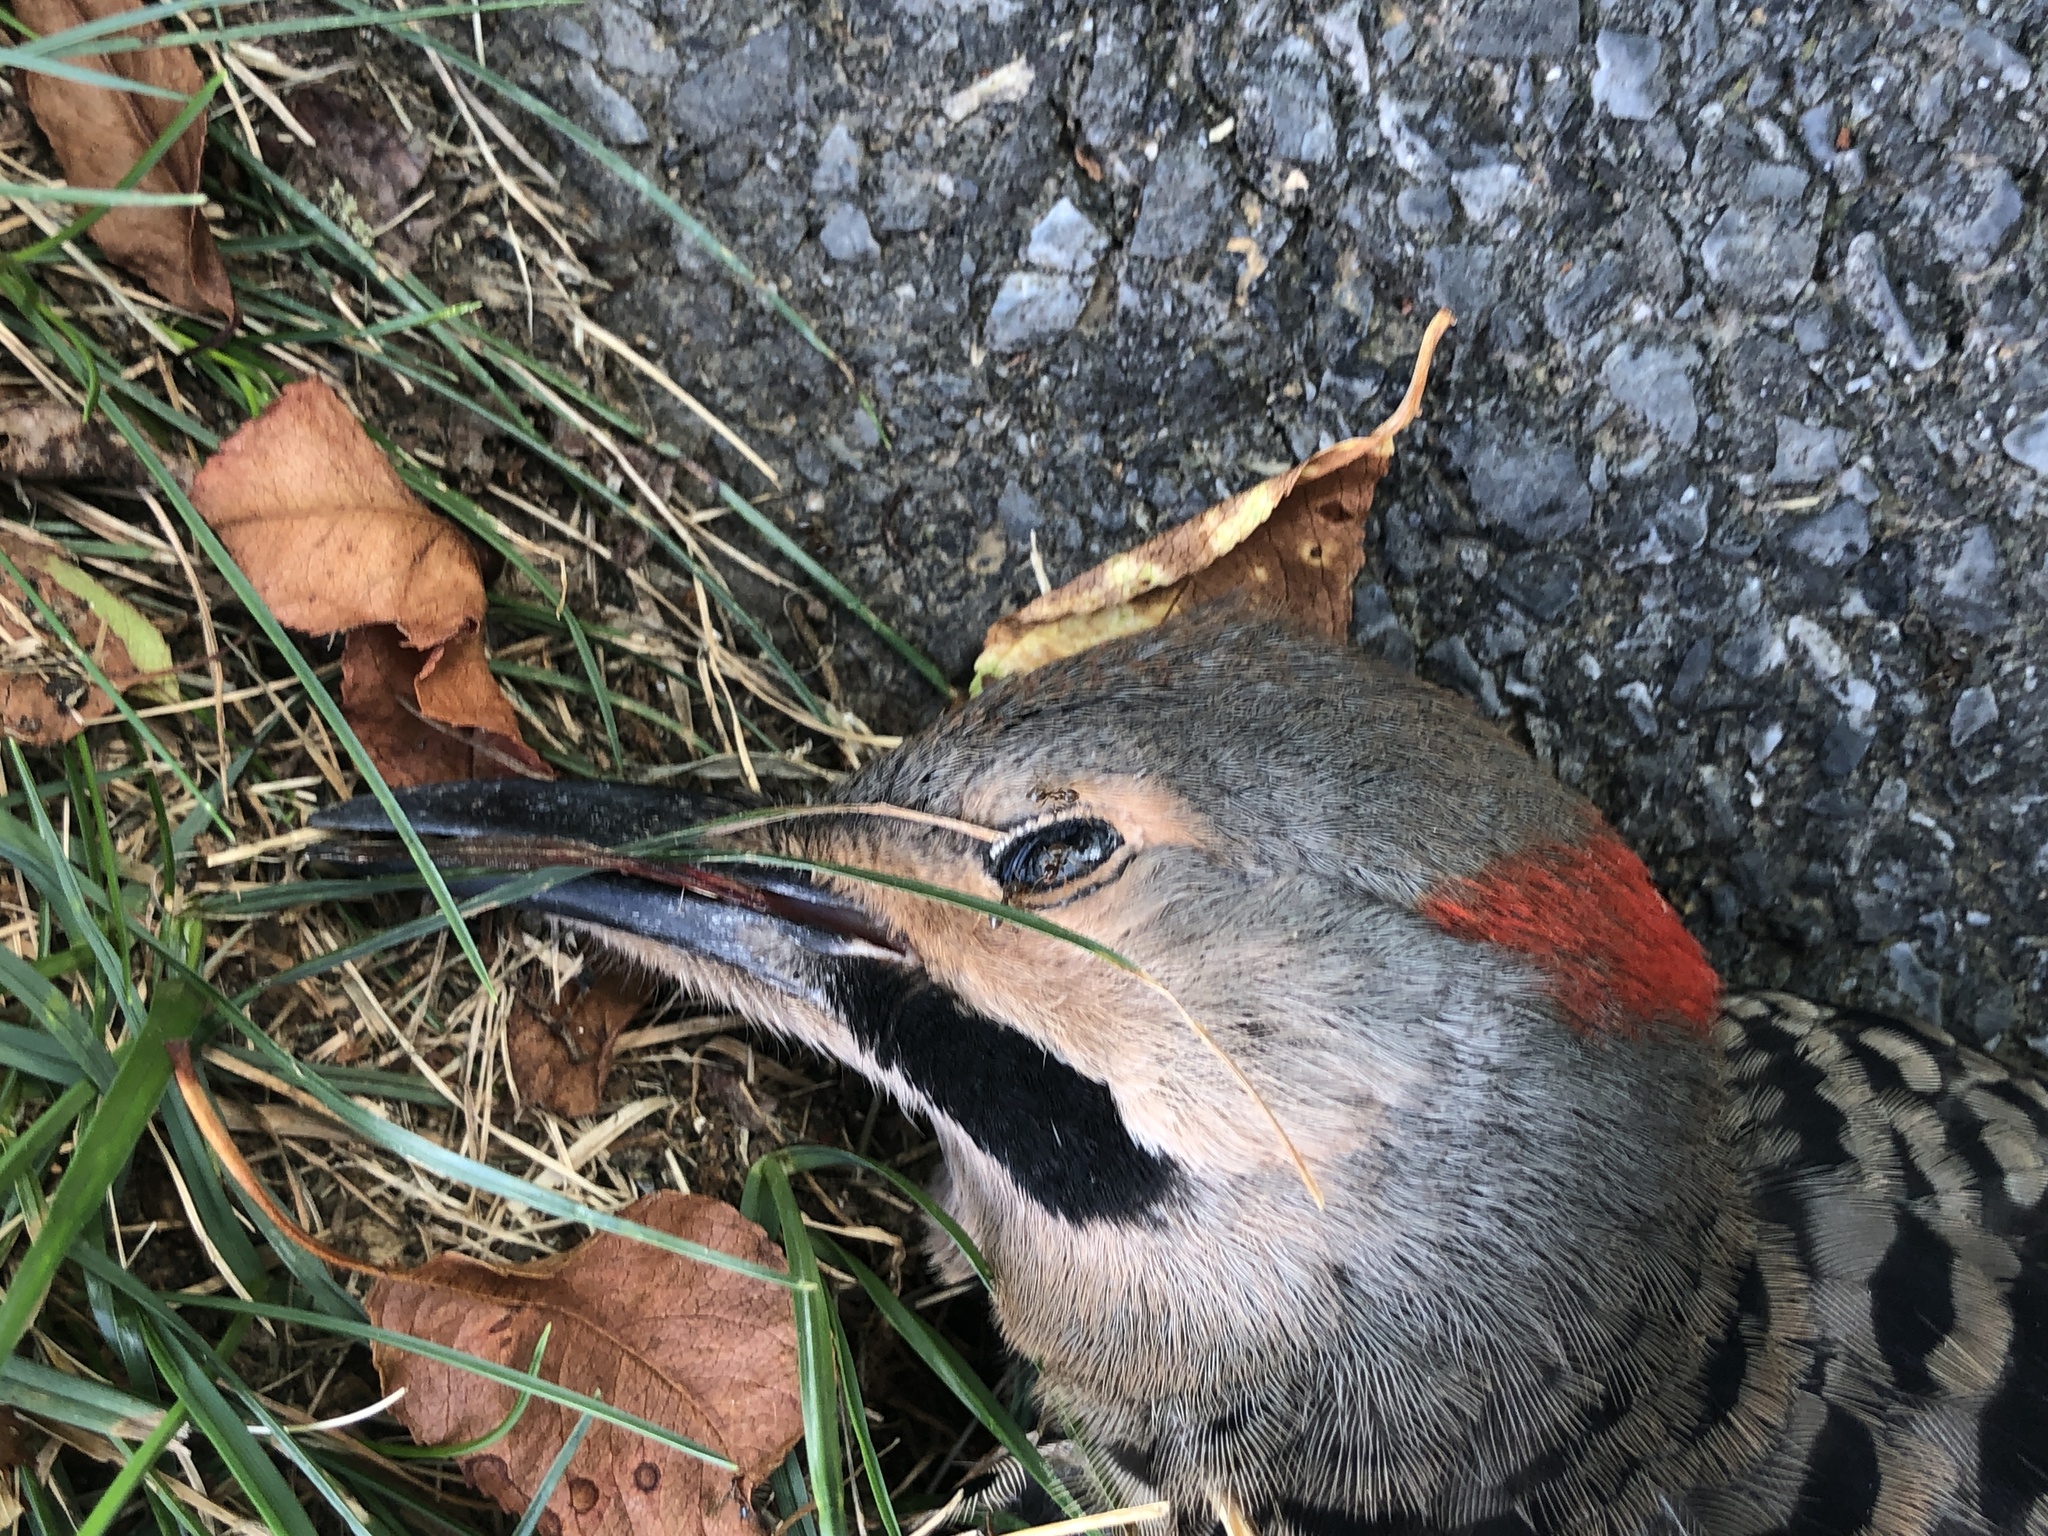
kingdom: Animalia
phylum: Chordata
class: Aves
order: Piciformes
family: Picidae
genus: Colaptes
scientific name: Colaptes auratus
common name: Northern flicker
